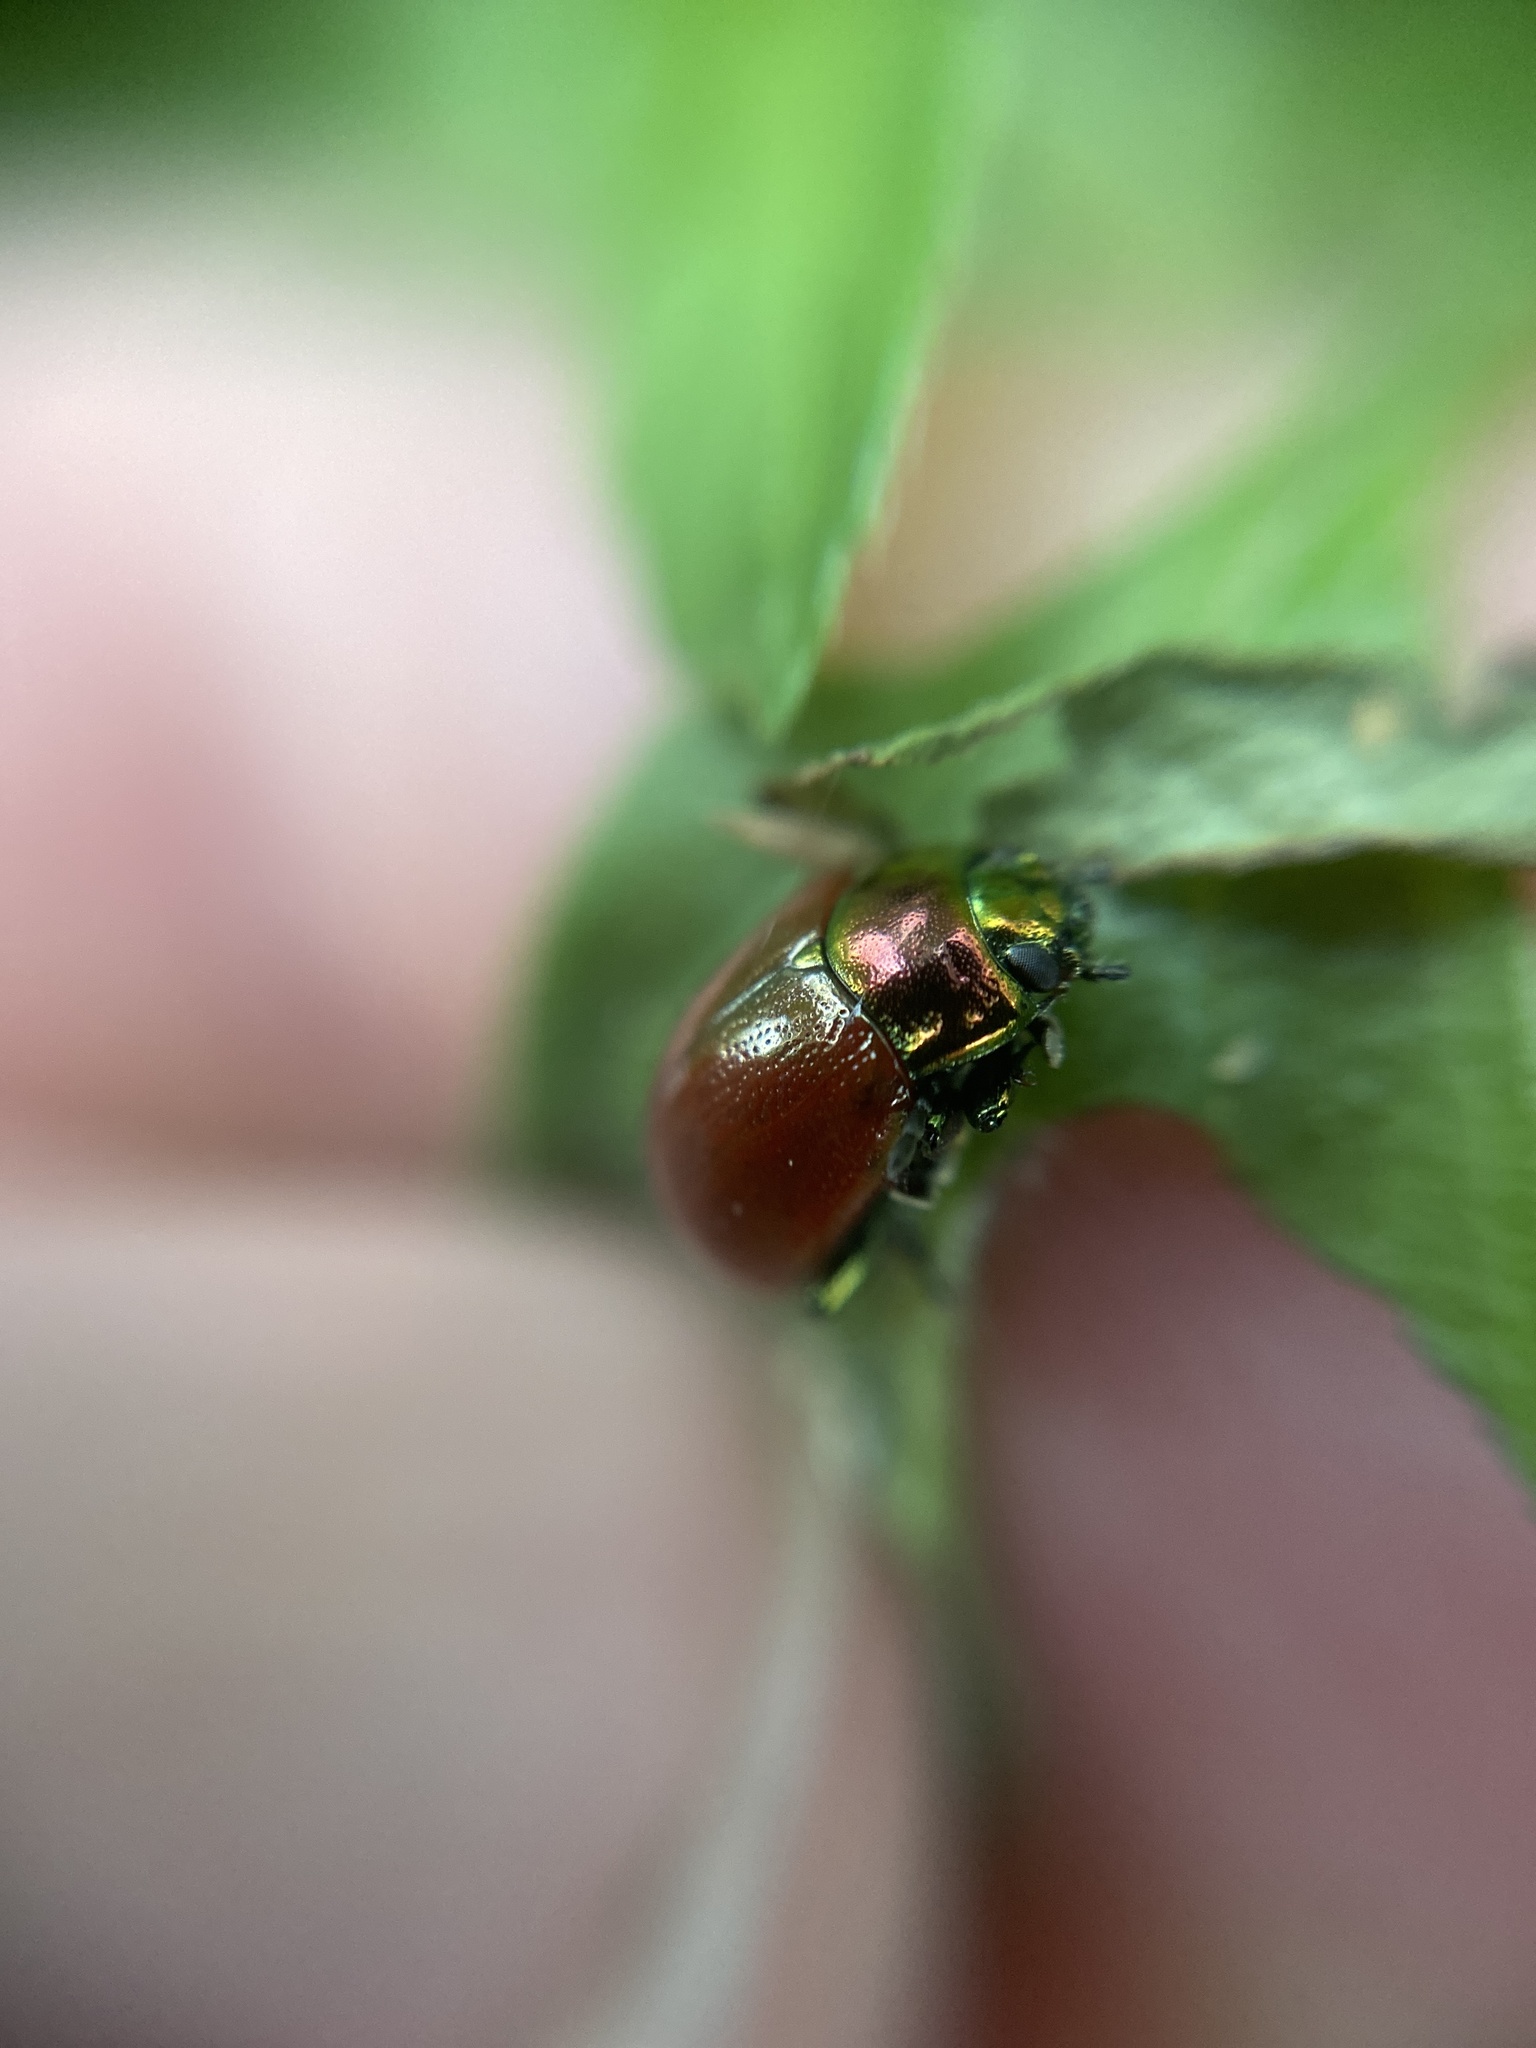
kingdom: Animalia
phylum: Arthropoda
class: Insecta
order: Coleoptera
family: Chrysomelidae
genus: Chrysomela
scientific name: Chrysomela polita
